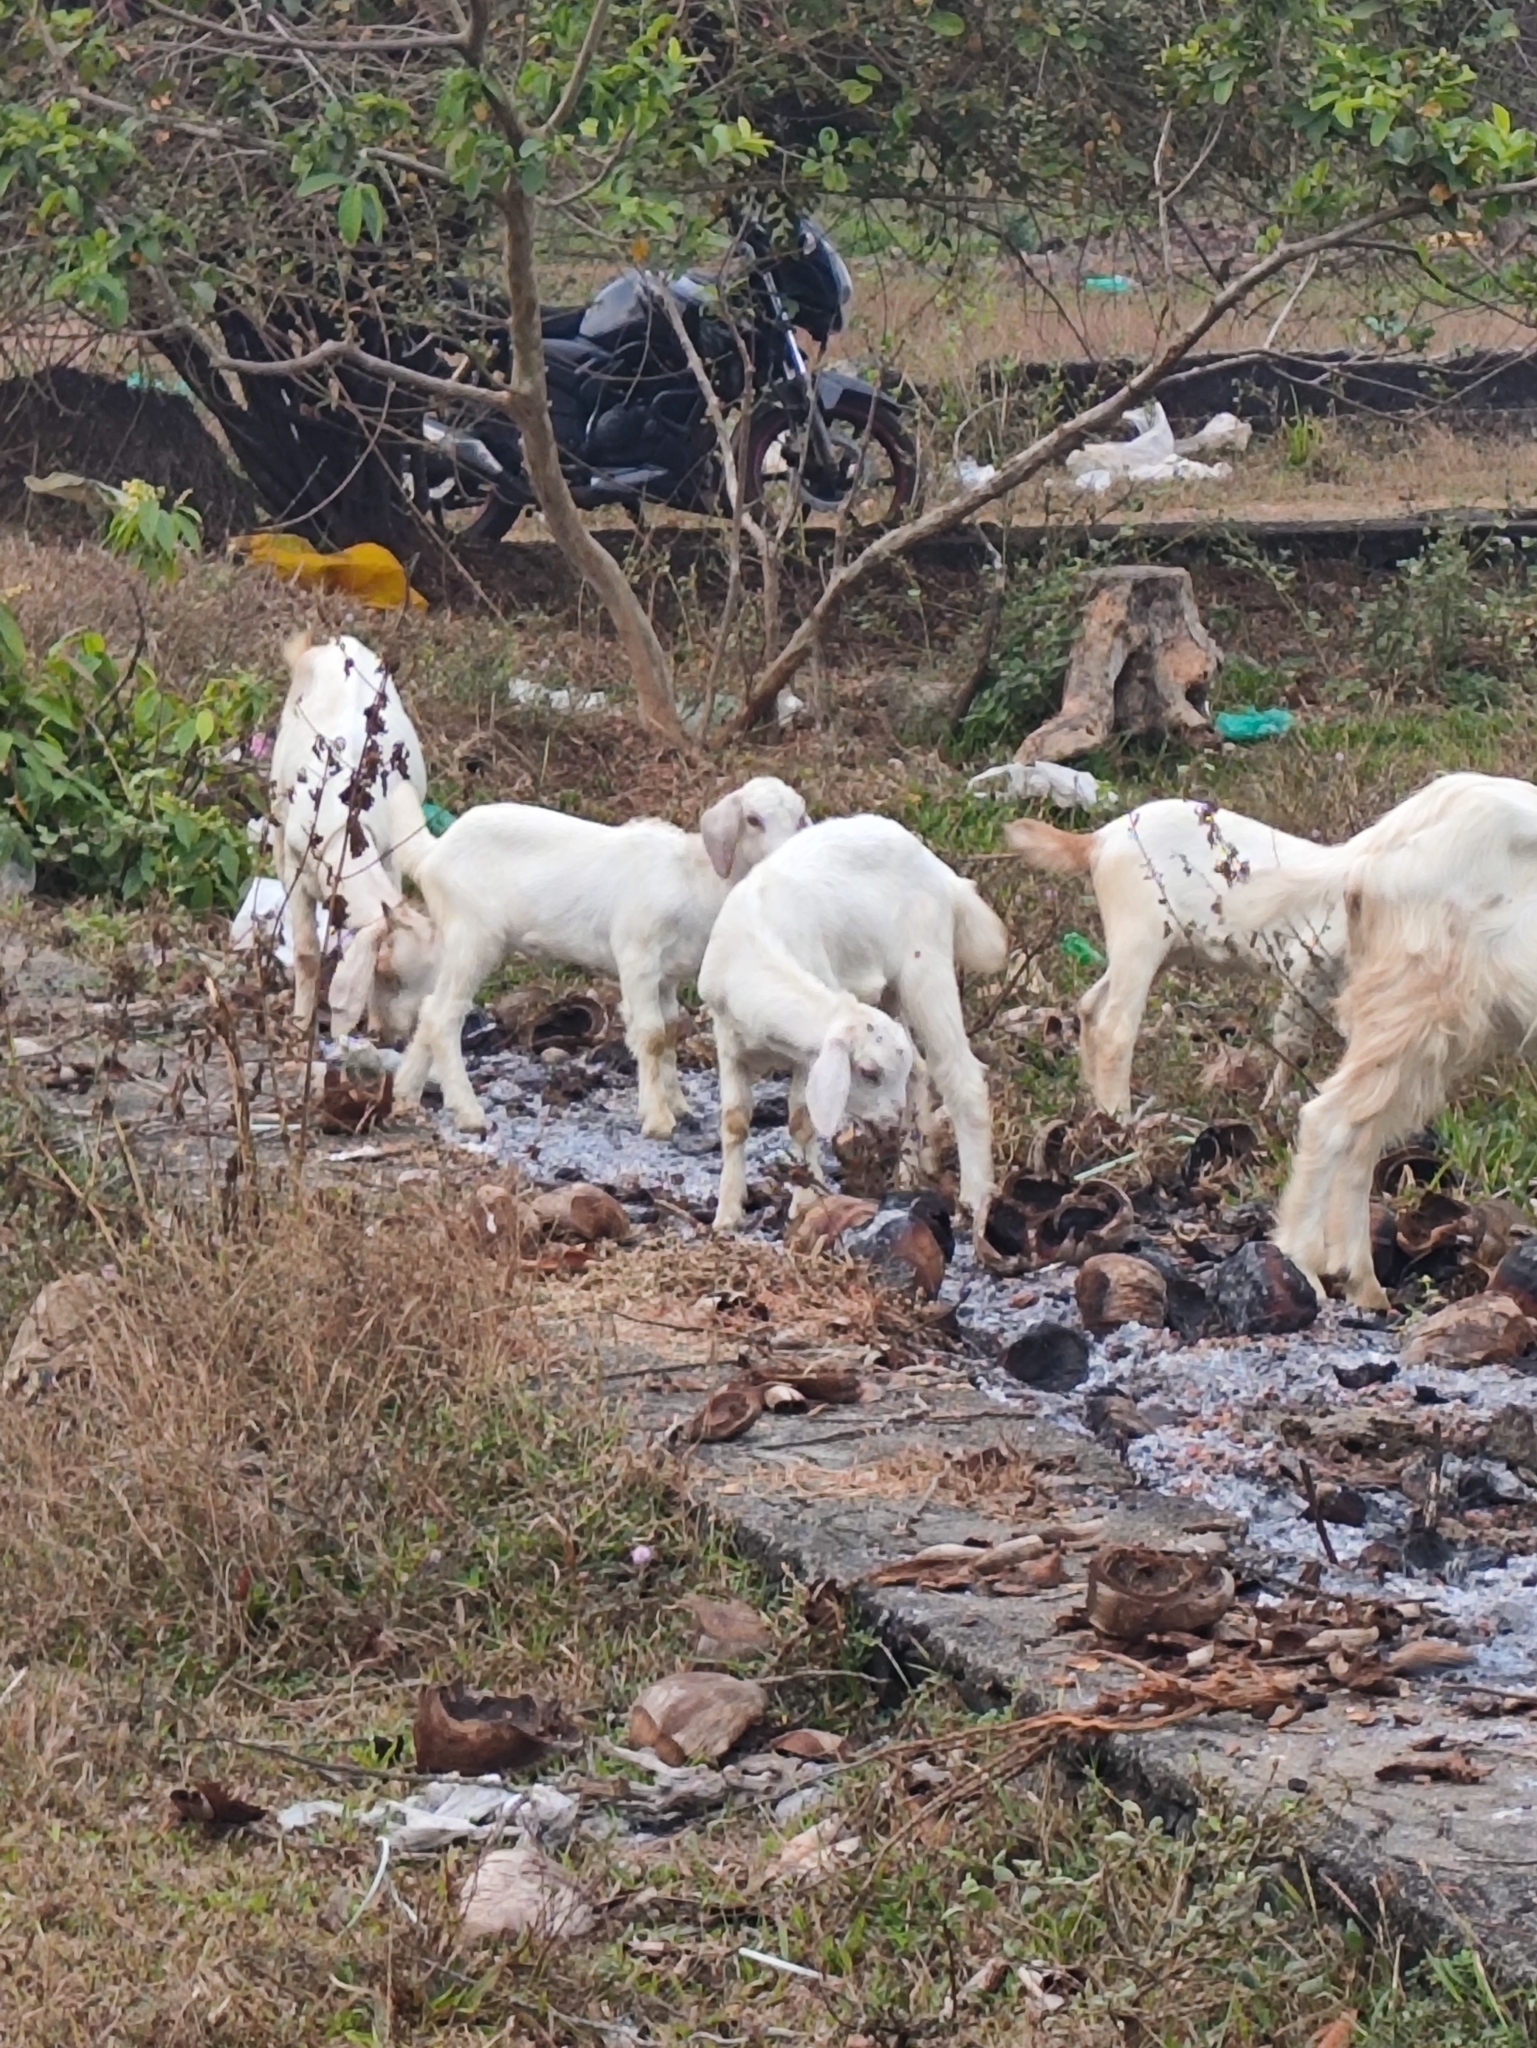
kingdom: Animalia
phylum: Chordata
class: Mammalia
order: Artiodactyla
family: Bovidae
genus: Capra
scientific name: Capra hircus
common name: Domestic goat
